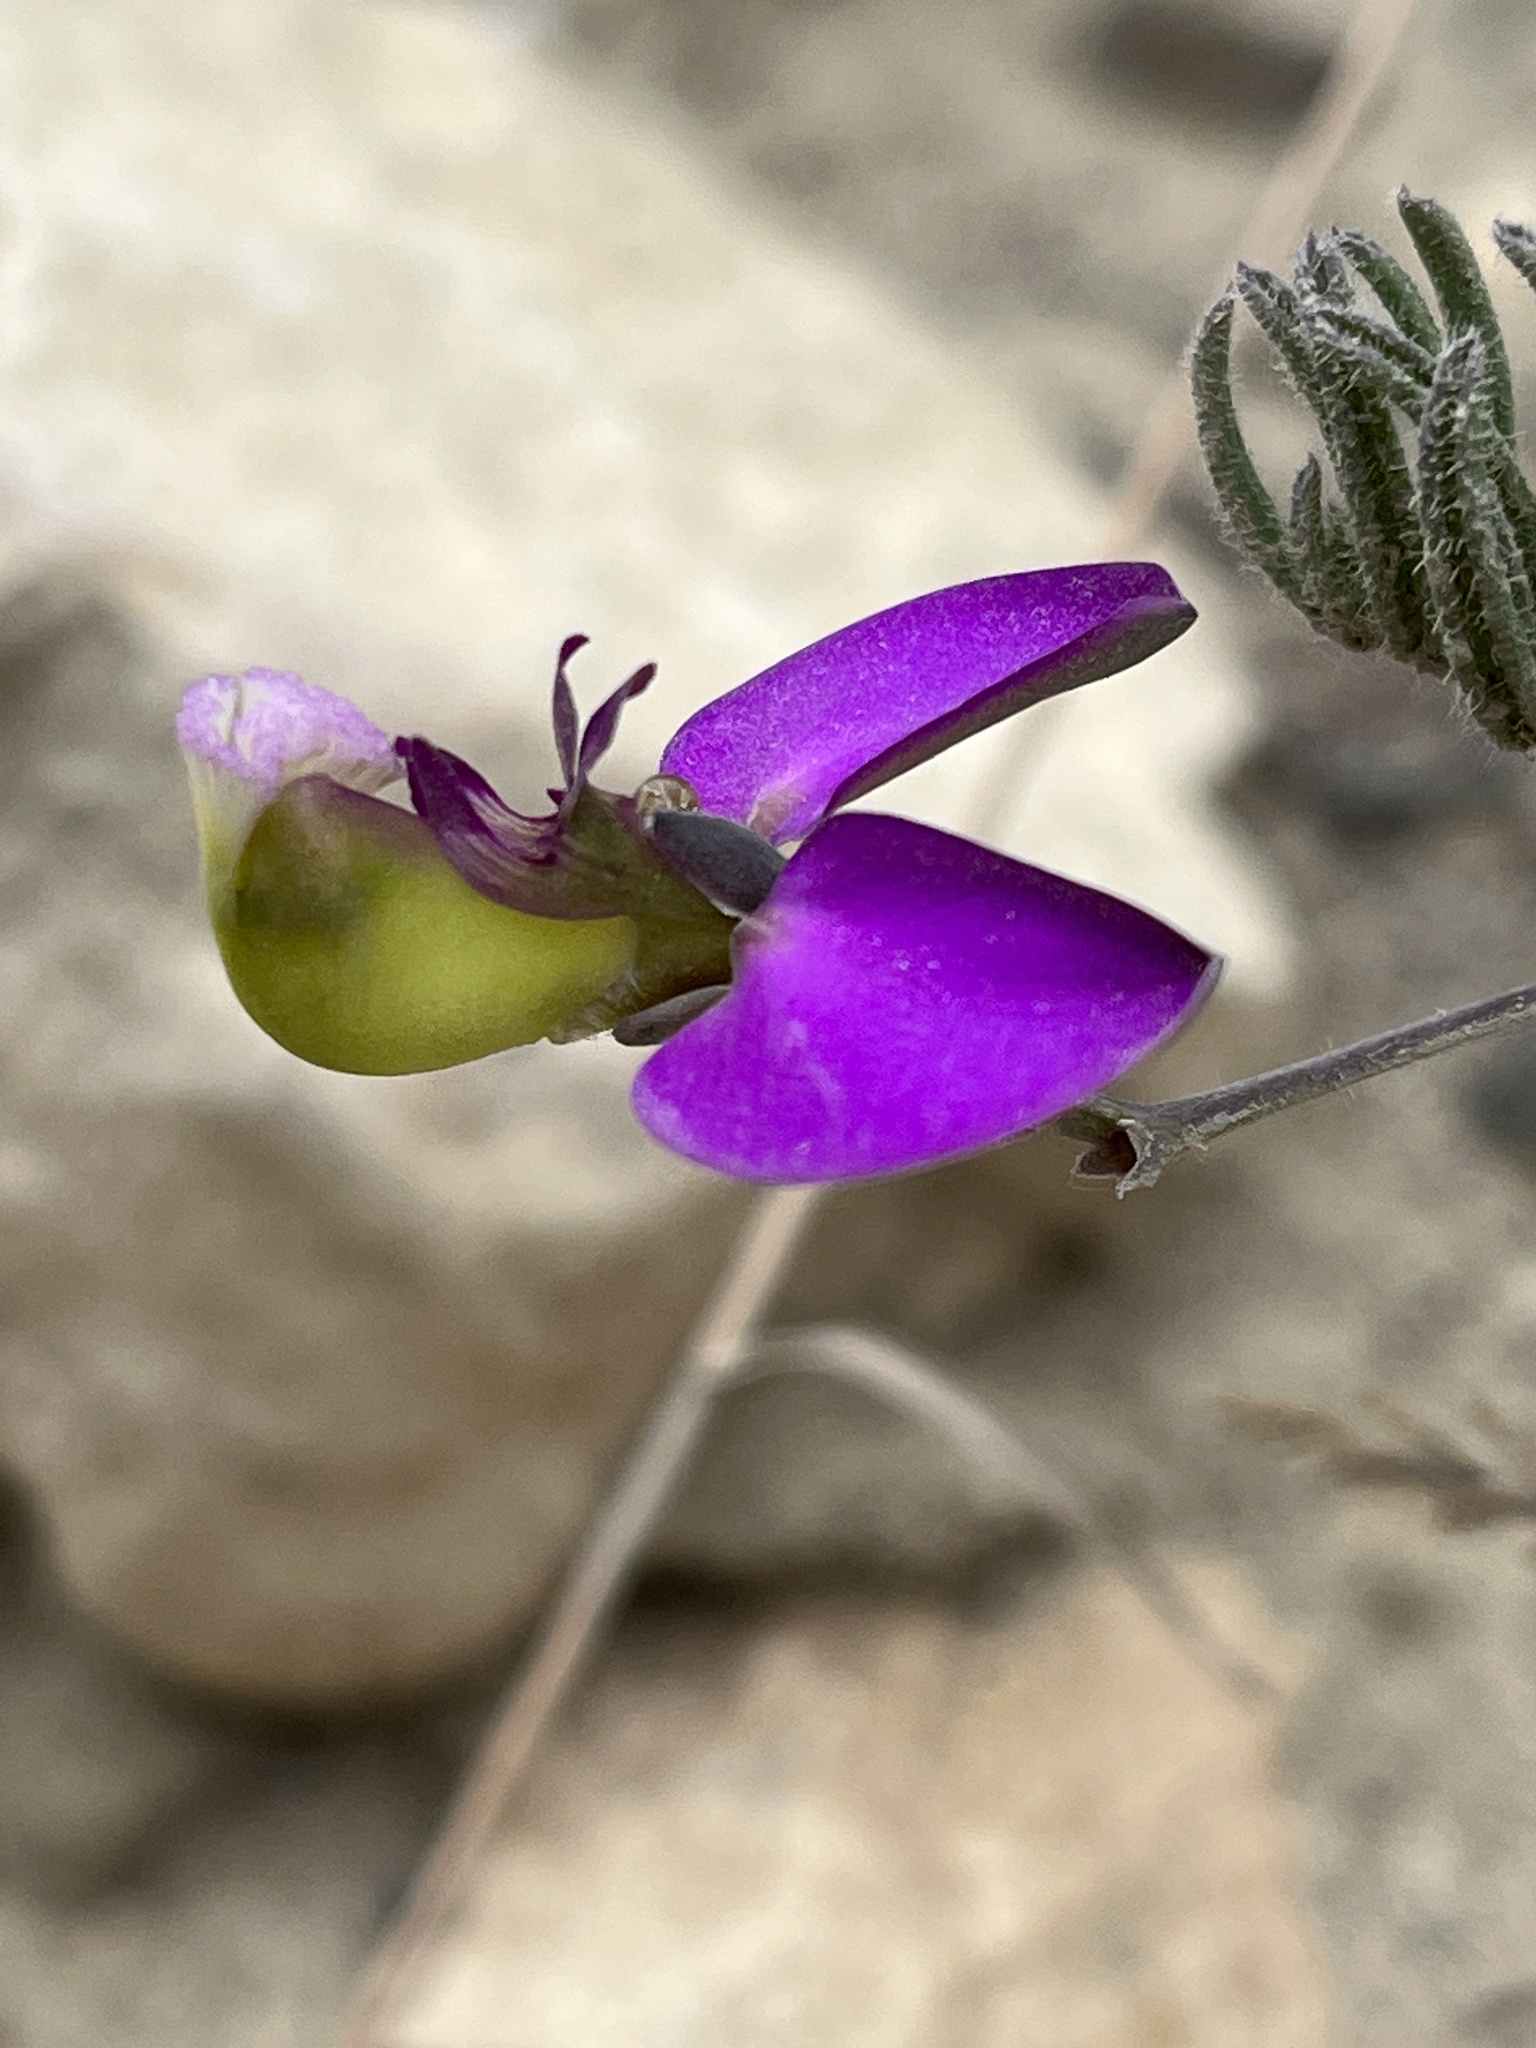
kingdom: Plantae
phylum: Tracheophyta
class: Magnoliopsida
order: Fabales
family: Polygalaceae
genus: Polygala
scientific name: Polygala peduncularis
